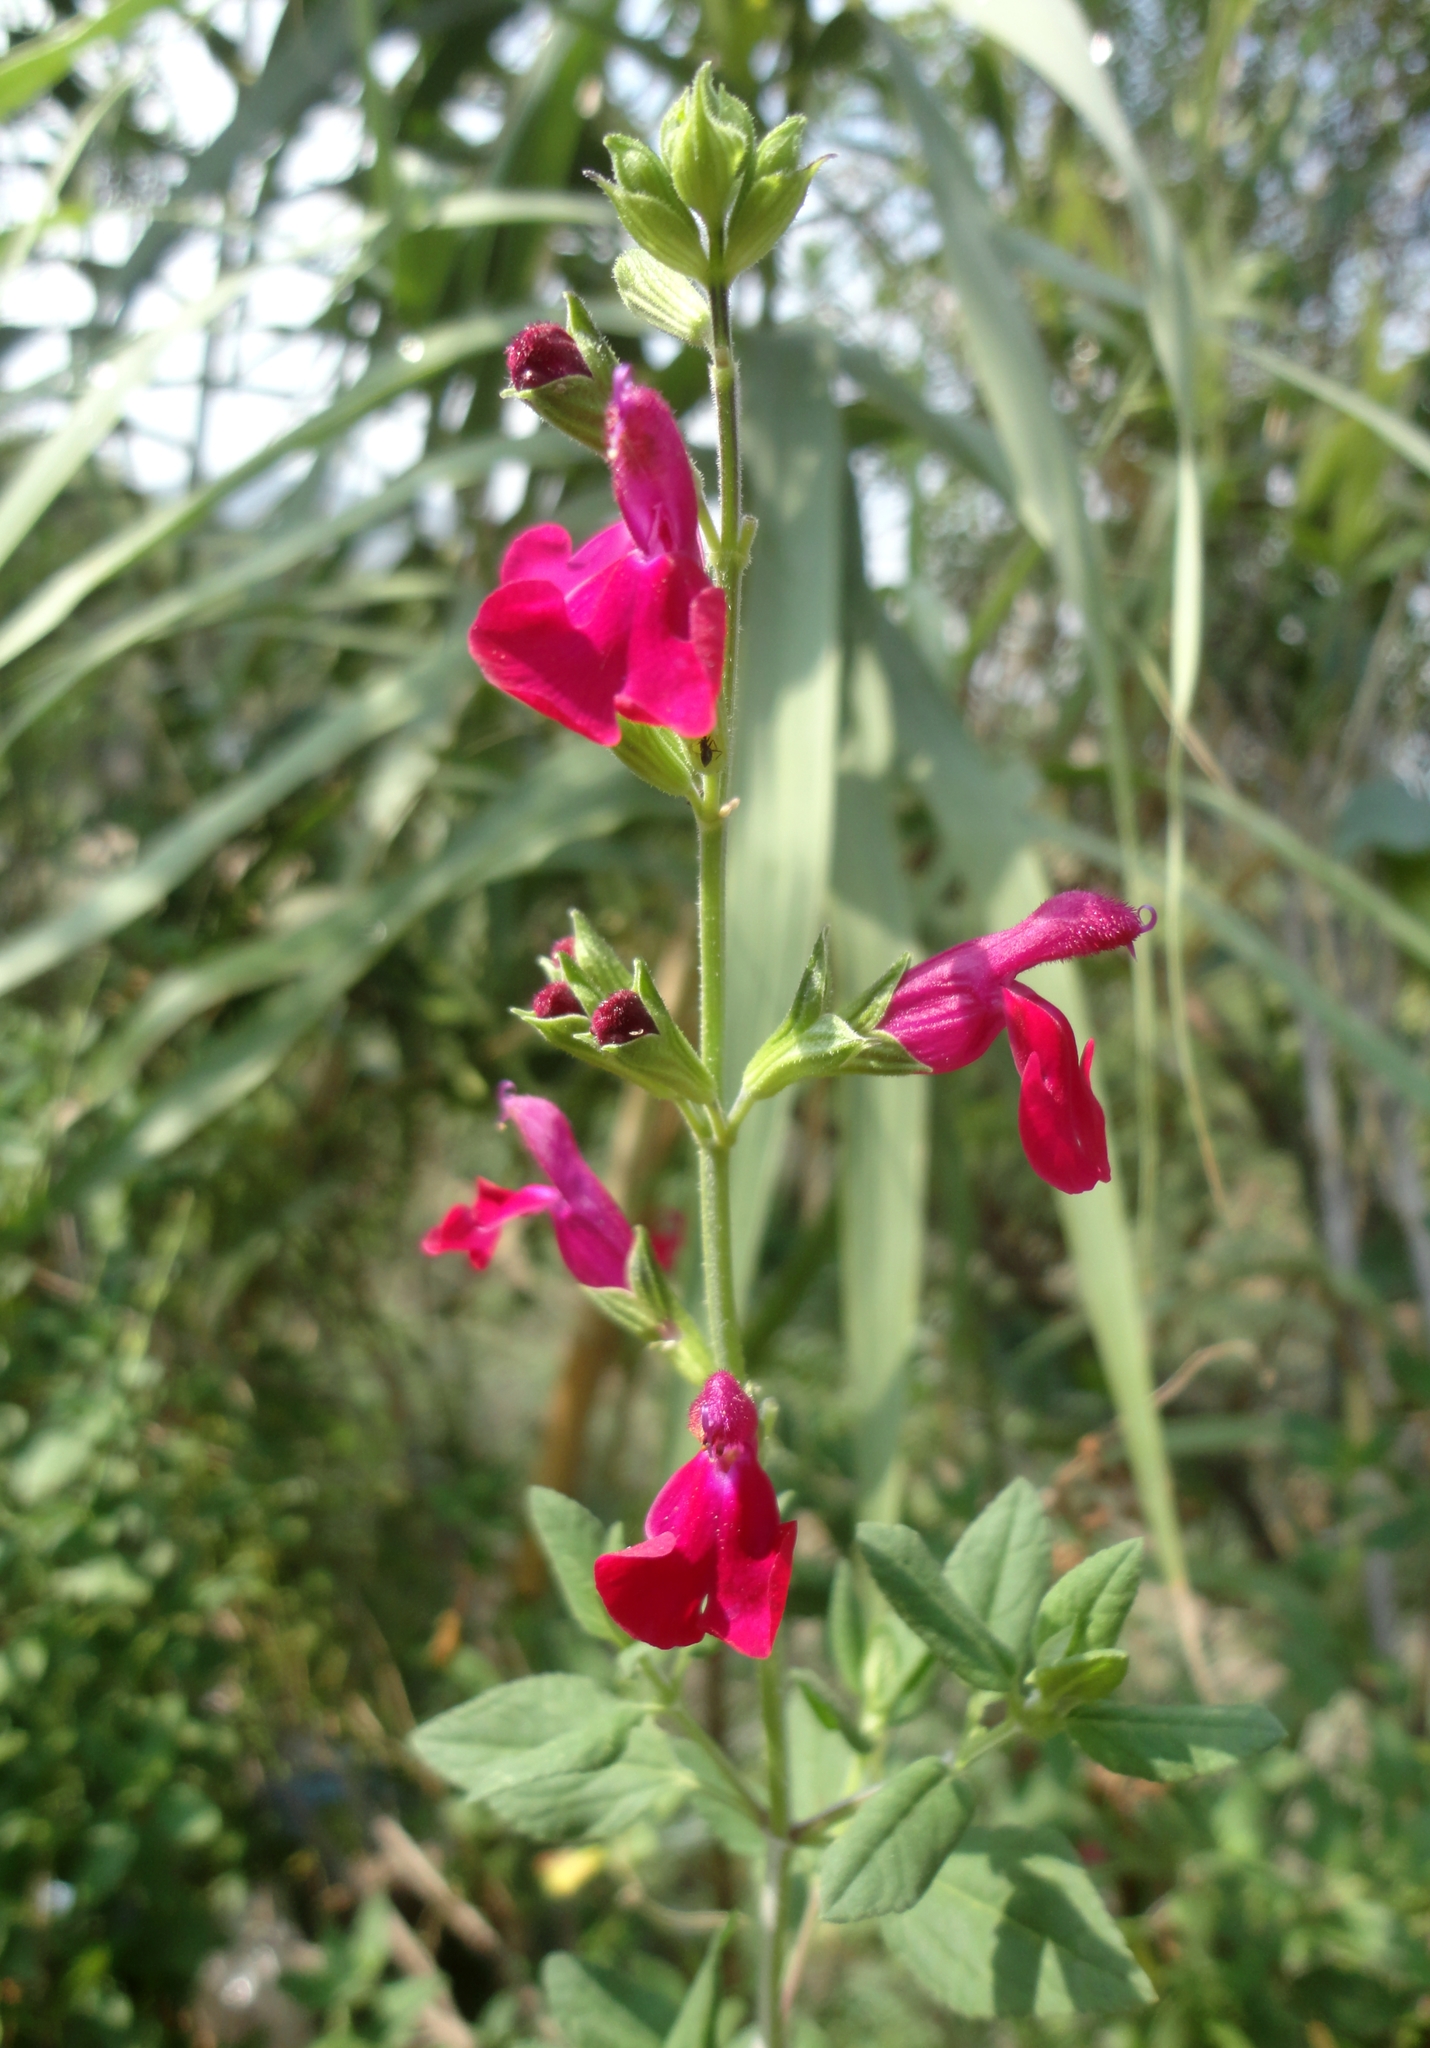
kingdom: Plantae
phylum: Tracheophyta
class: Magnoliopsida
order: Lamiales
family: Lamiaceae
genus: Salvia
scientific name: Salvia microphylla
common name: Baby sage
